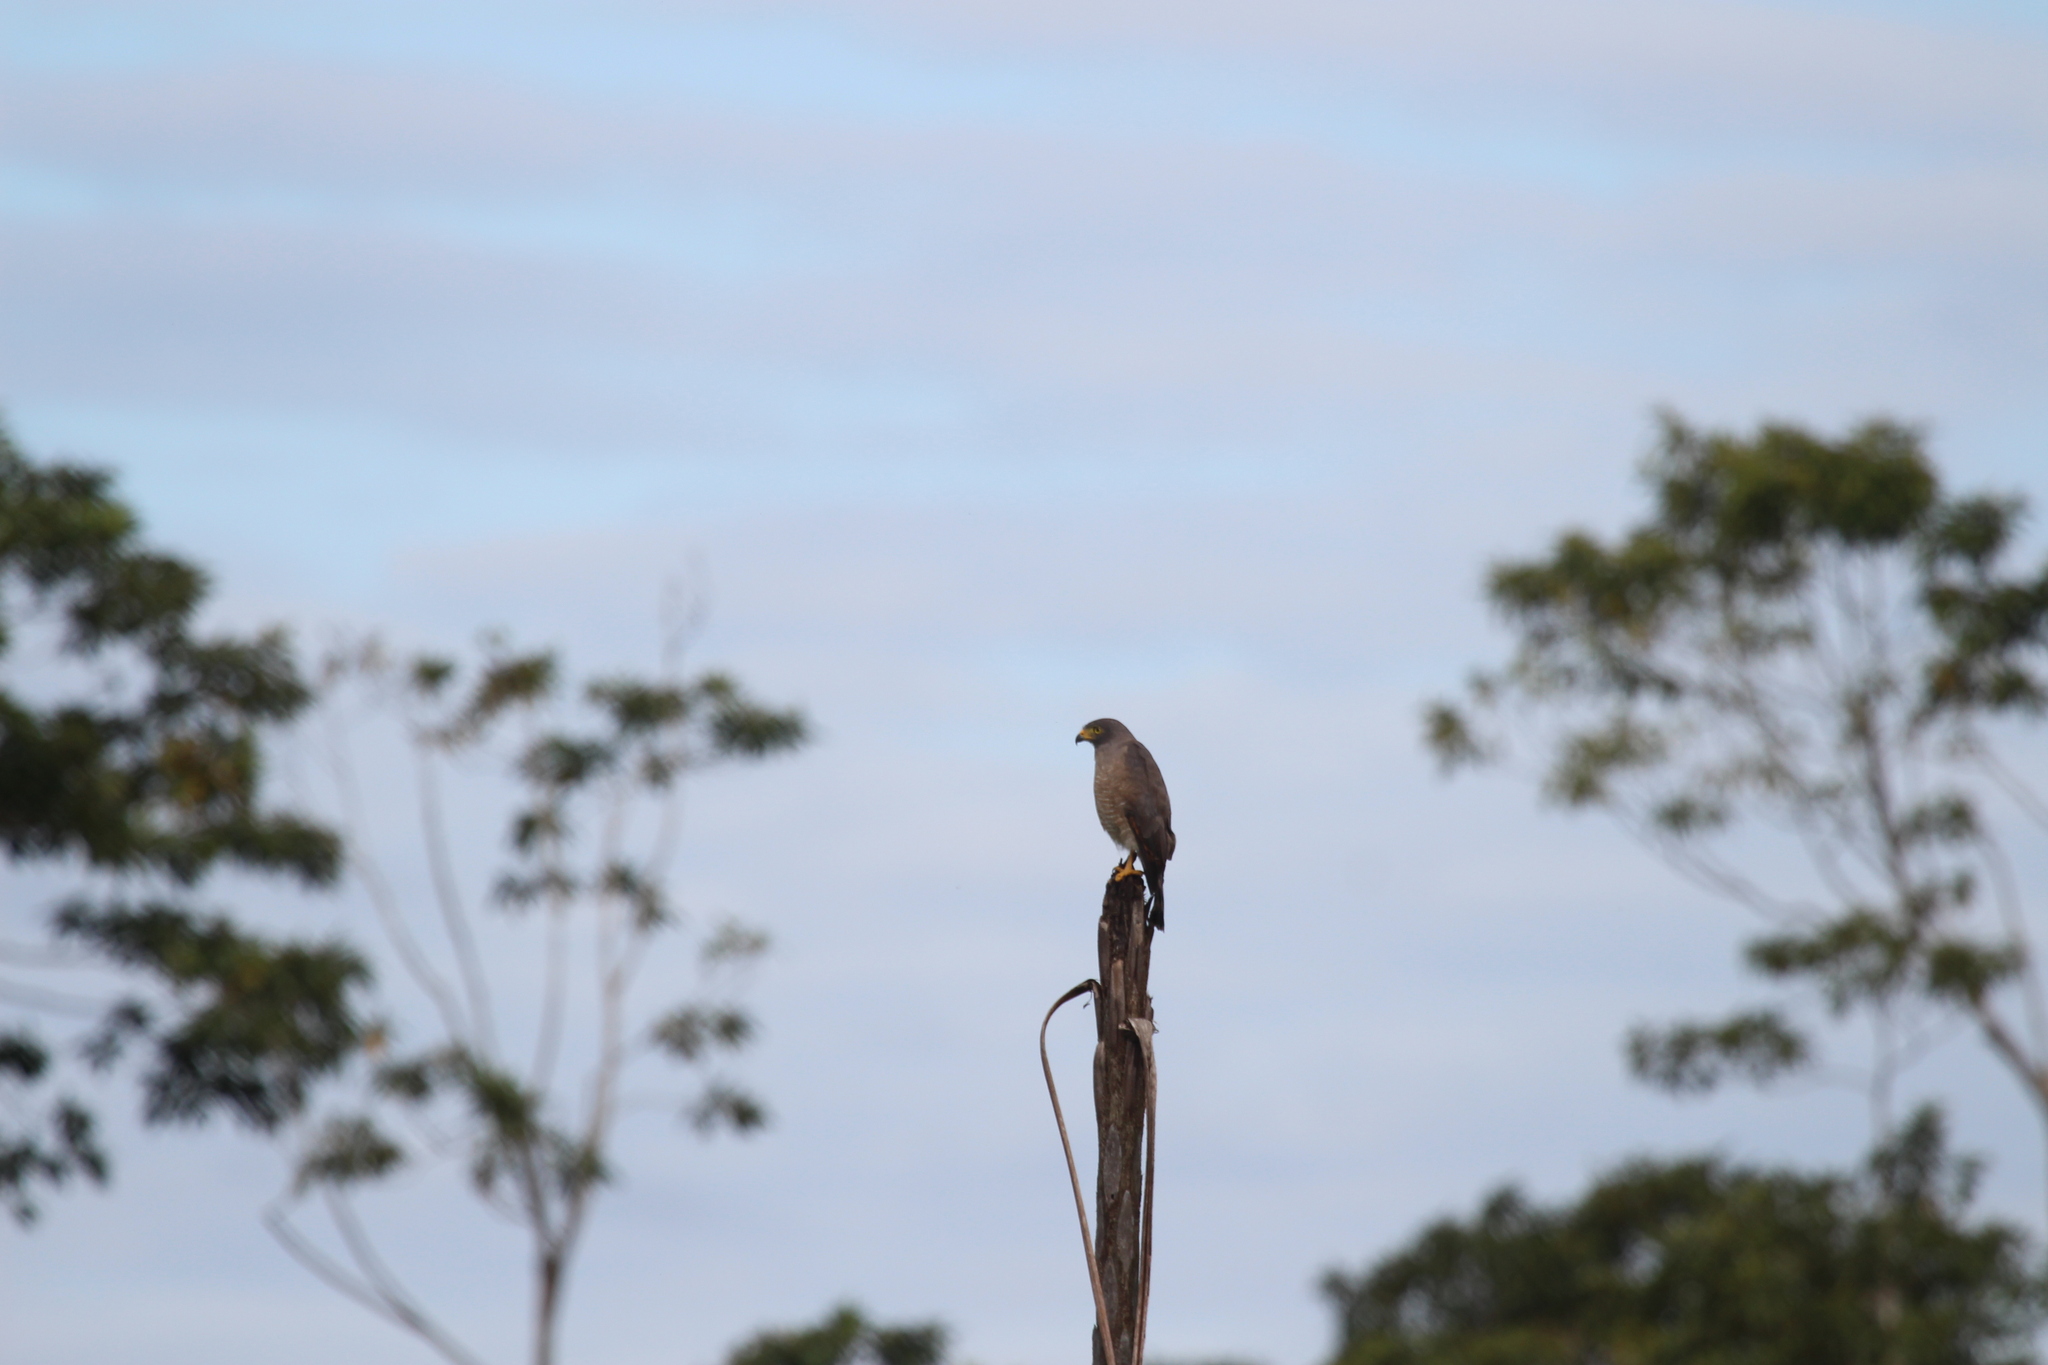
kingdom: Animalia
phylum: Chordata
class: Aves
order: Accipitriformes
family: Accipitridae
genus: Rupornis
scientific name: Rupornis magnirostris
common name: Roadside hawk
